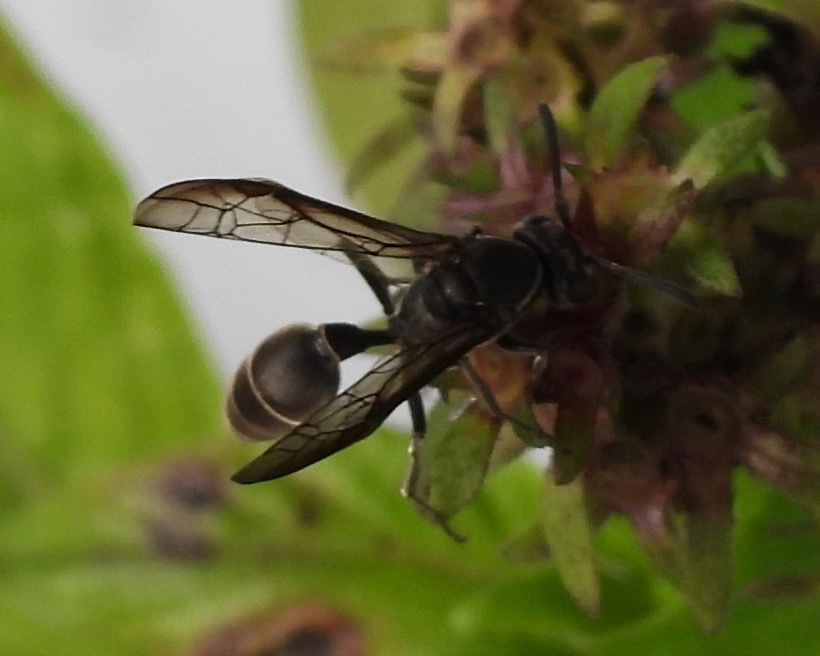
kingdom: Animalia
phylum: Arthropoda
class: Insecta
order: Hymenoptera
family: Eumenidae
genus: Polybia
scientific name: Polybia plebeja
